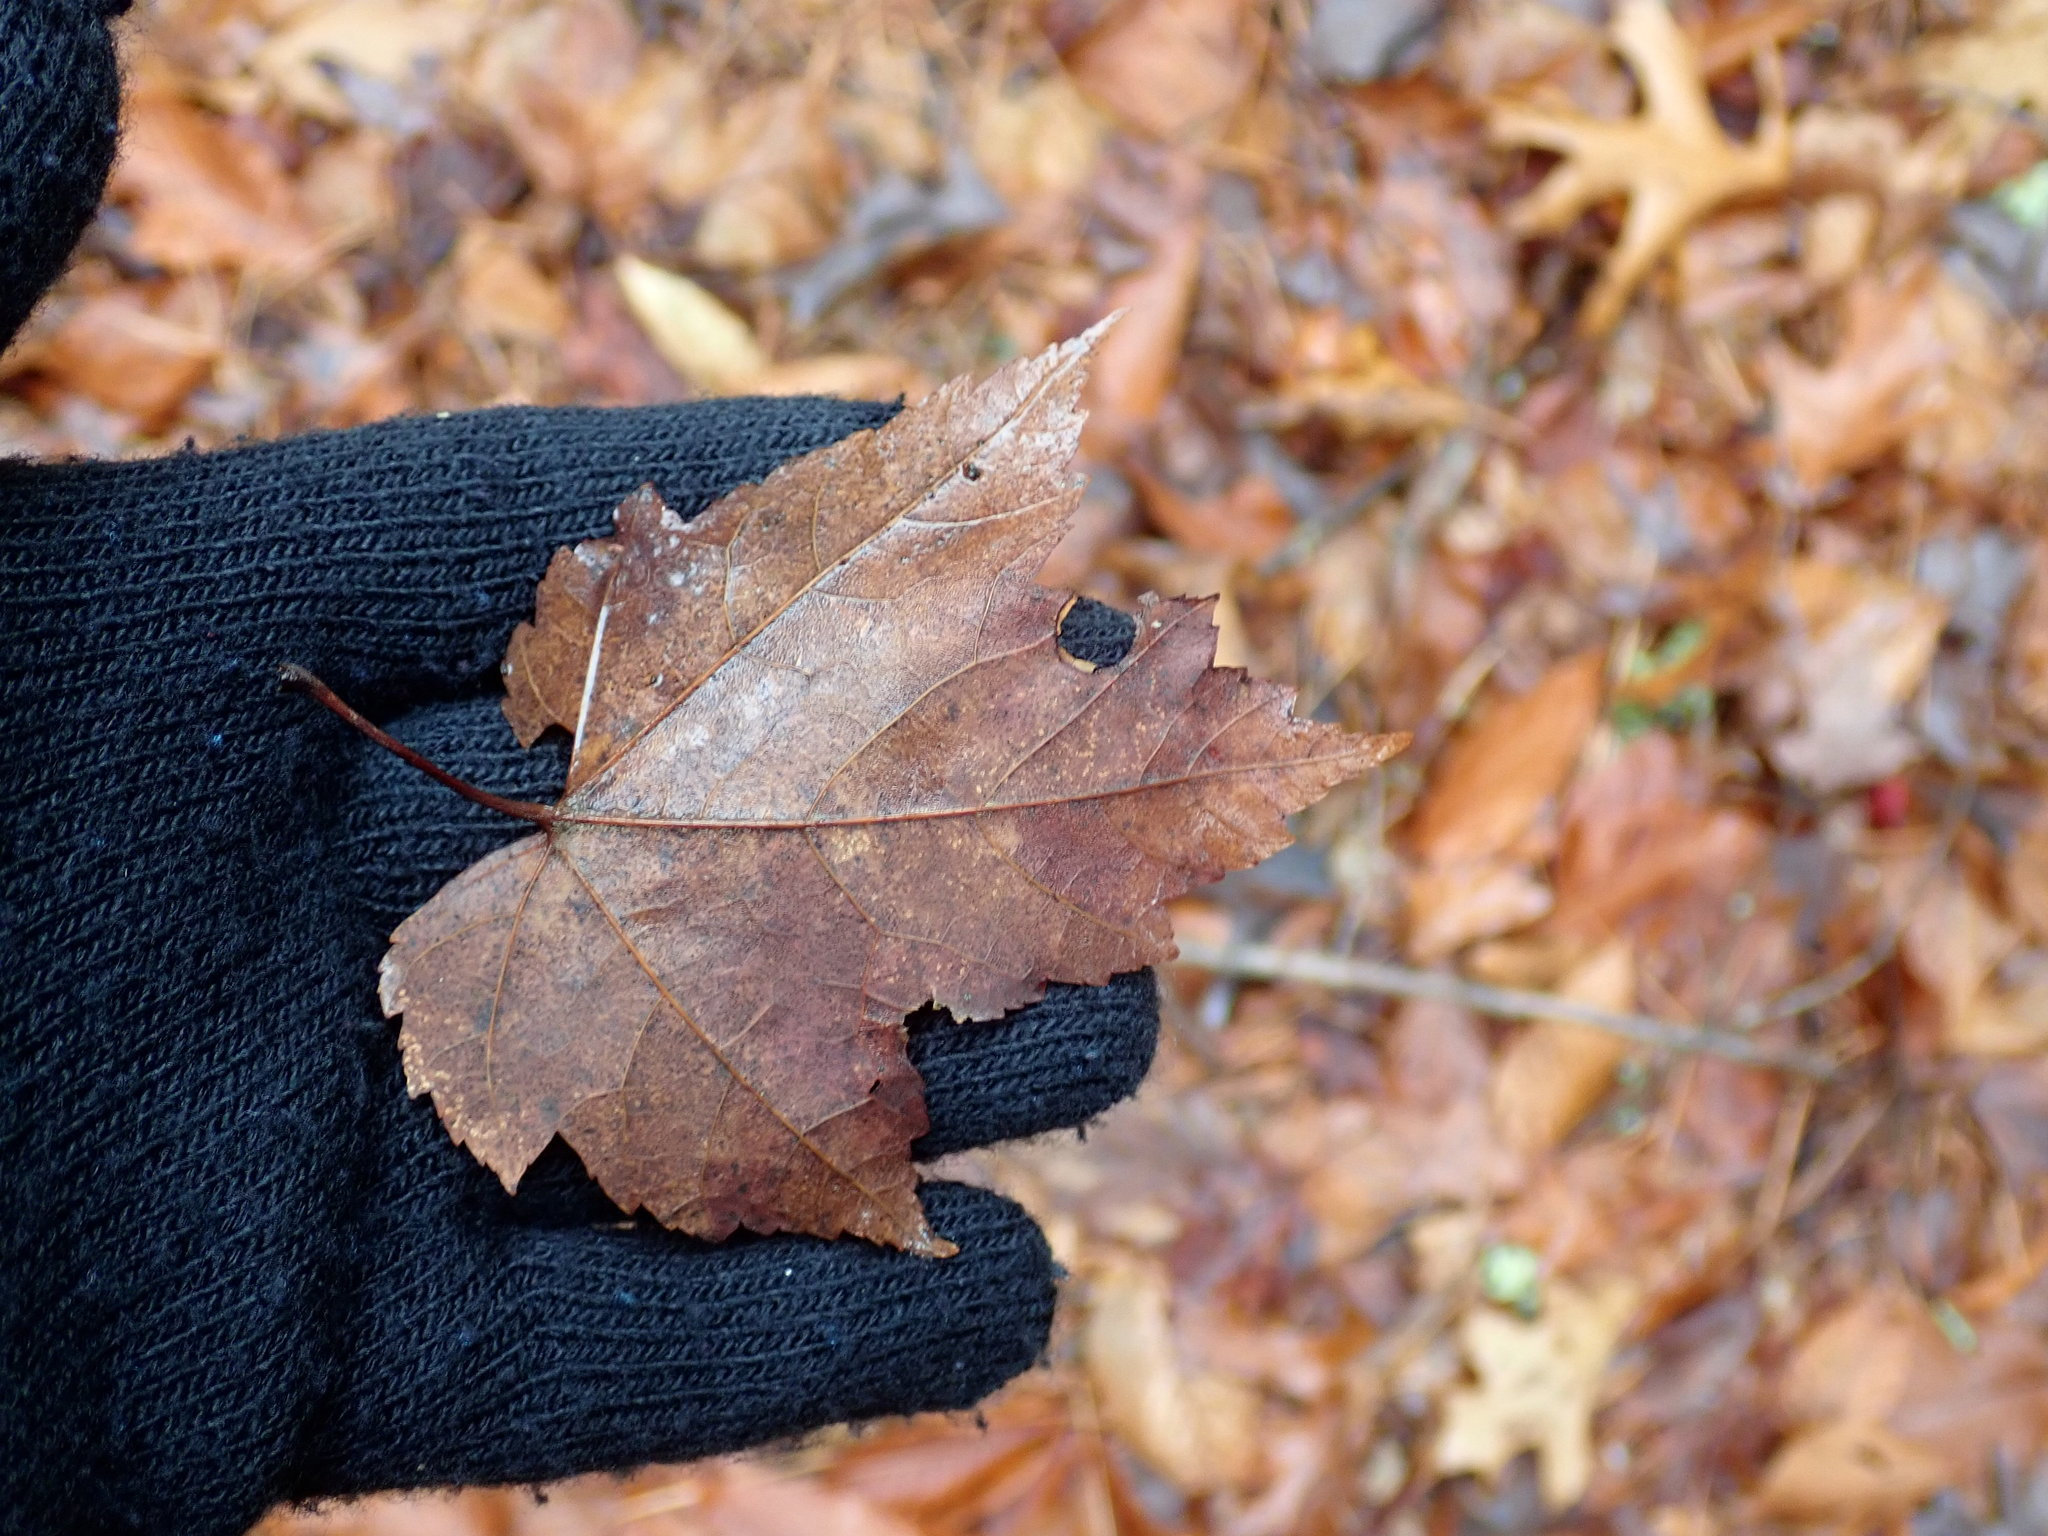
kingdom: Plantae
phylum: Tracheophyta
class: Magnoliopsida
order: Sapindales
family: Sapindaceae
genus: Acer
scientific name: Acer rubrum
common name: Red maple
